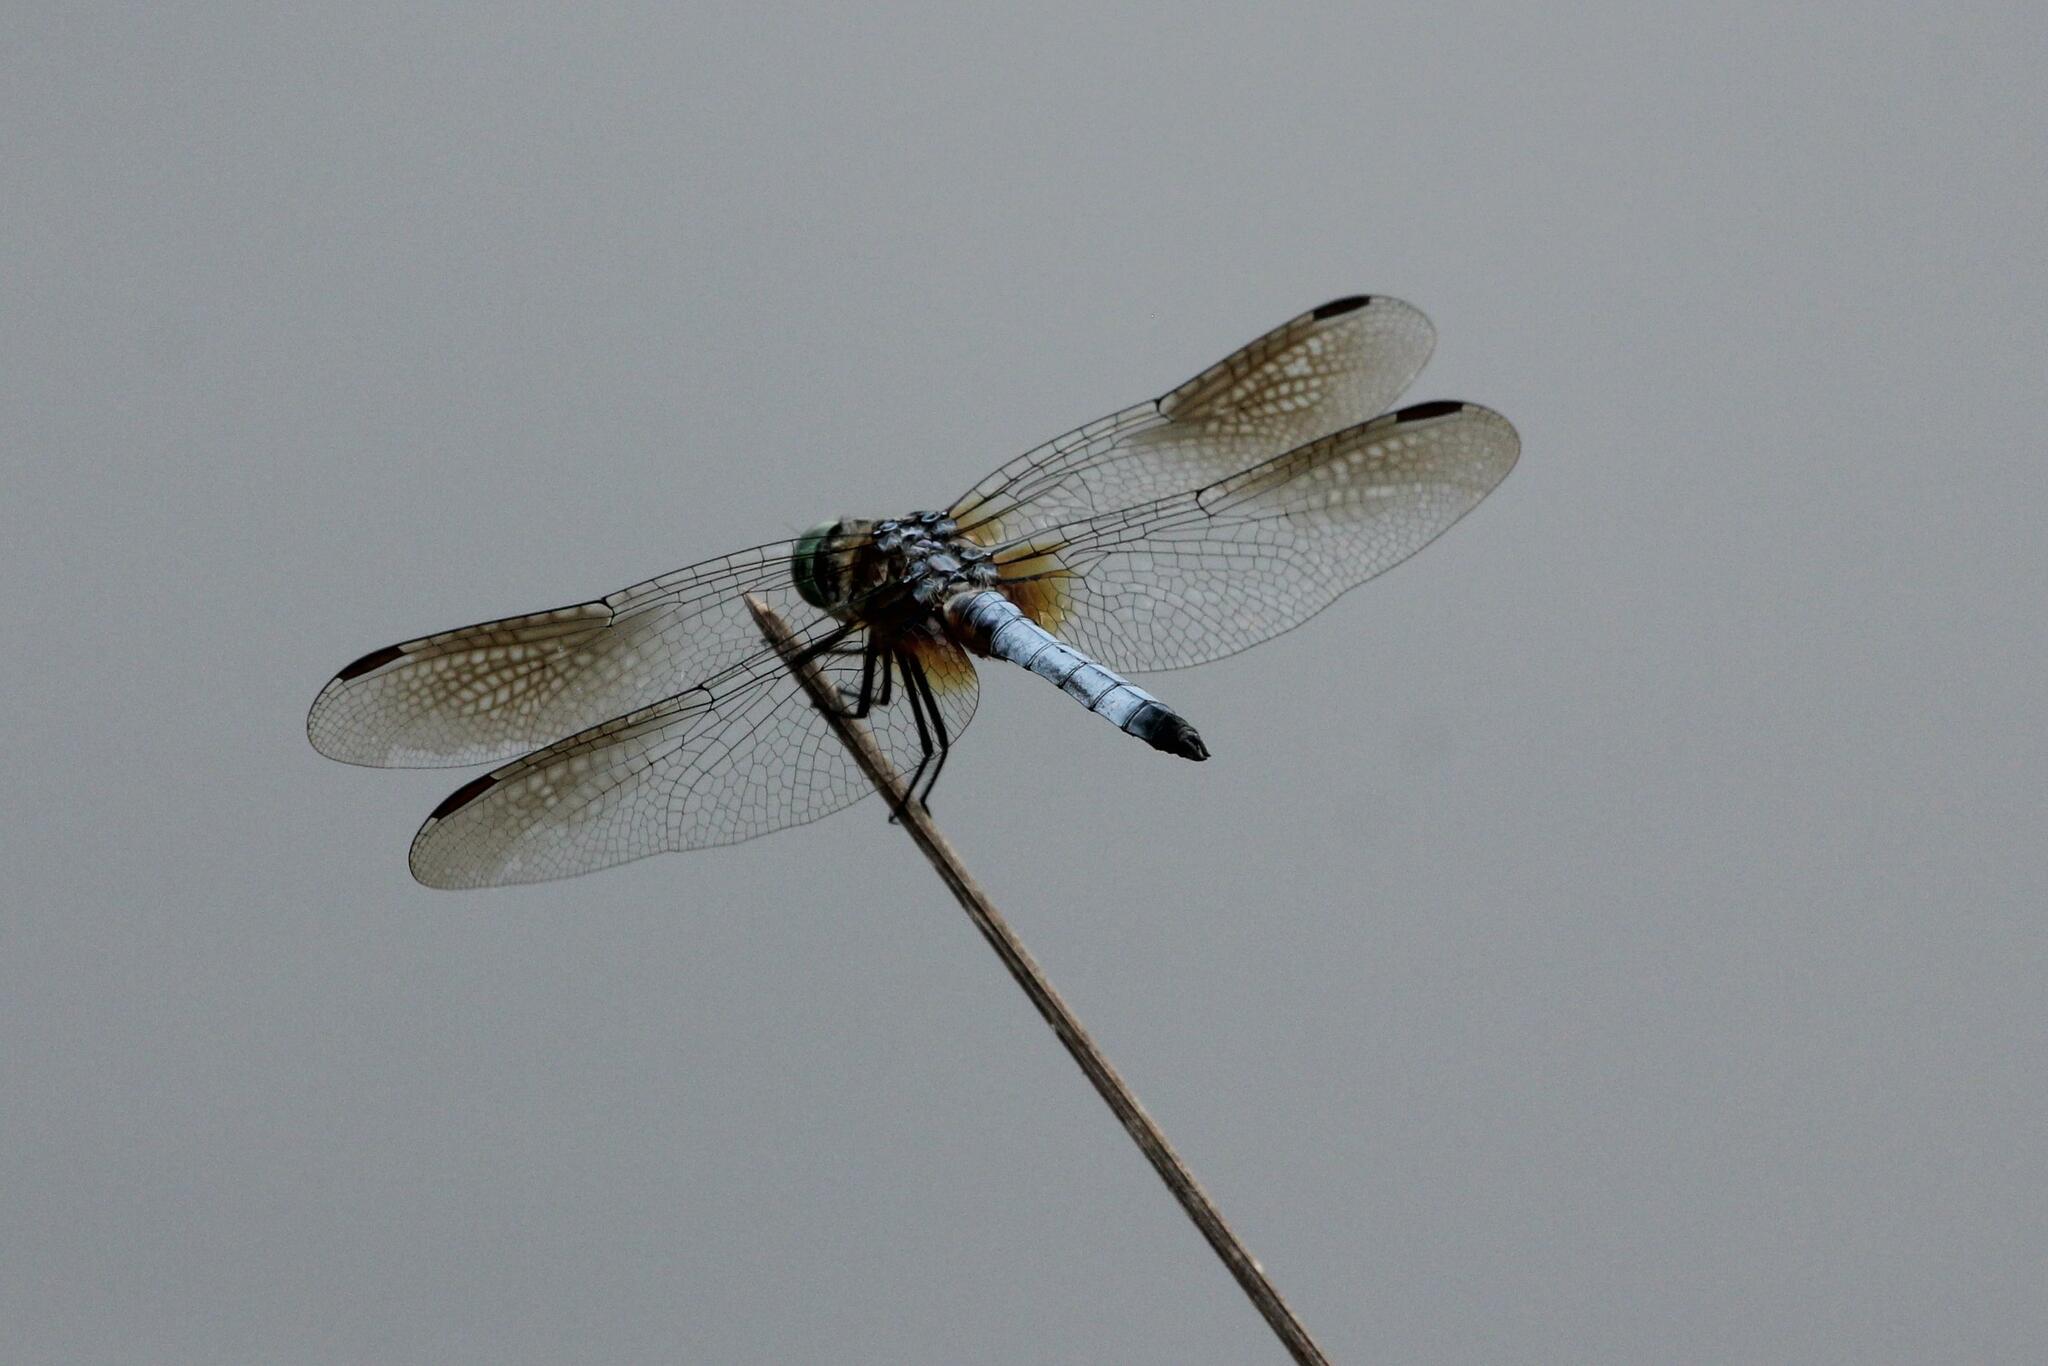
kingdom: Animalia
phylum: Arthropoda
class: Insecta
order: Odonata
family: Libellulidae
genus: Pachydiplax
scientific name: Pachydiplax longipennis
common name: Blue dasher
